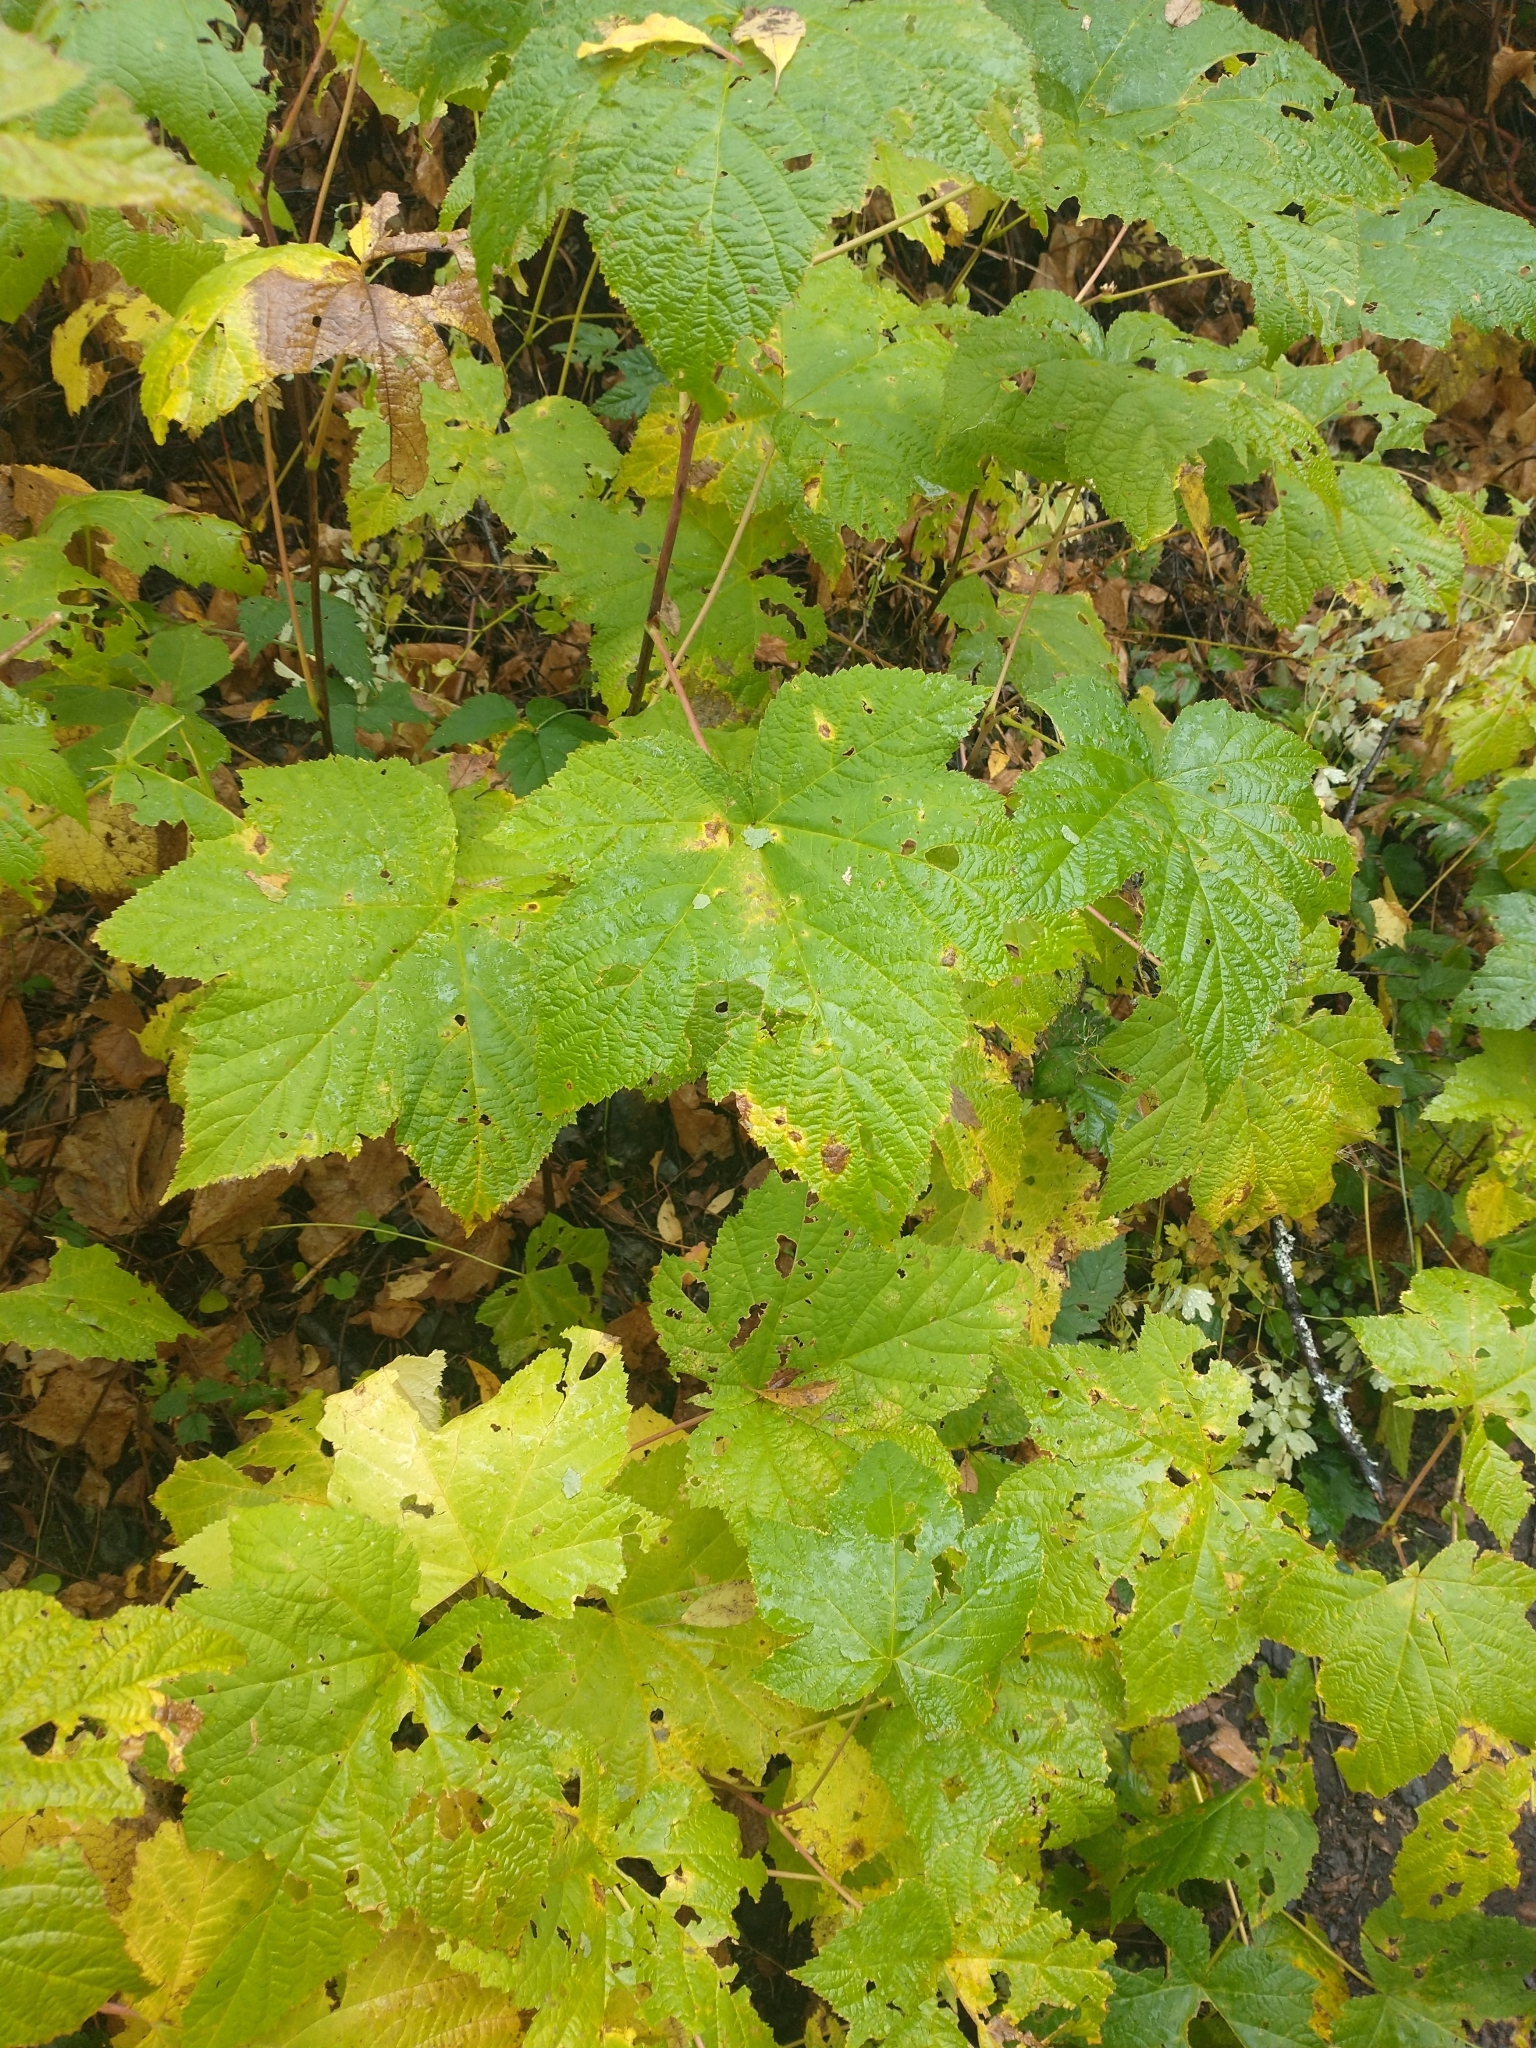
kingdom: Plantae
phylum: Tracheophyta
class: Magnoliopsida
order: Rosales
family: Rosaceae
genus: Rubus
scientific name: Rubus parviflorus
